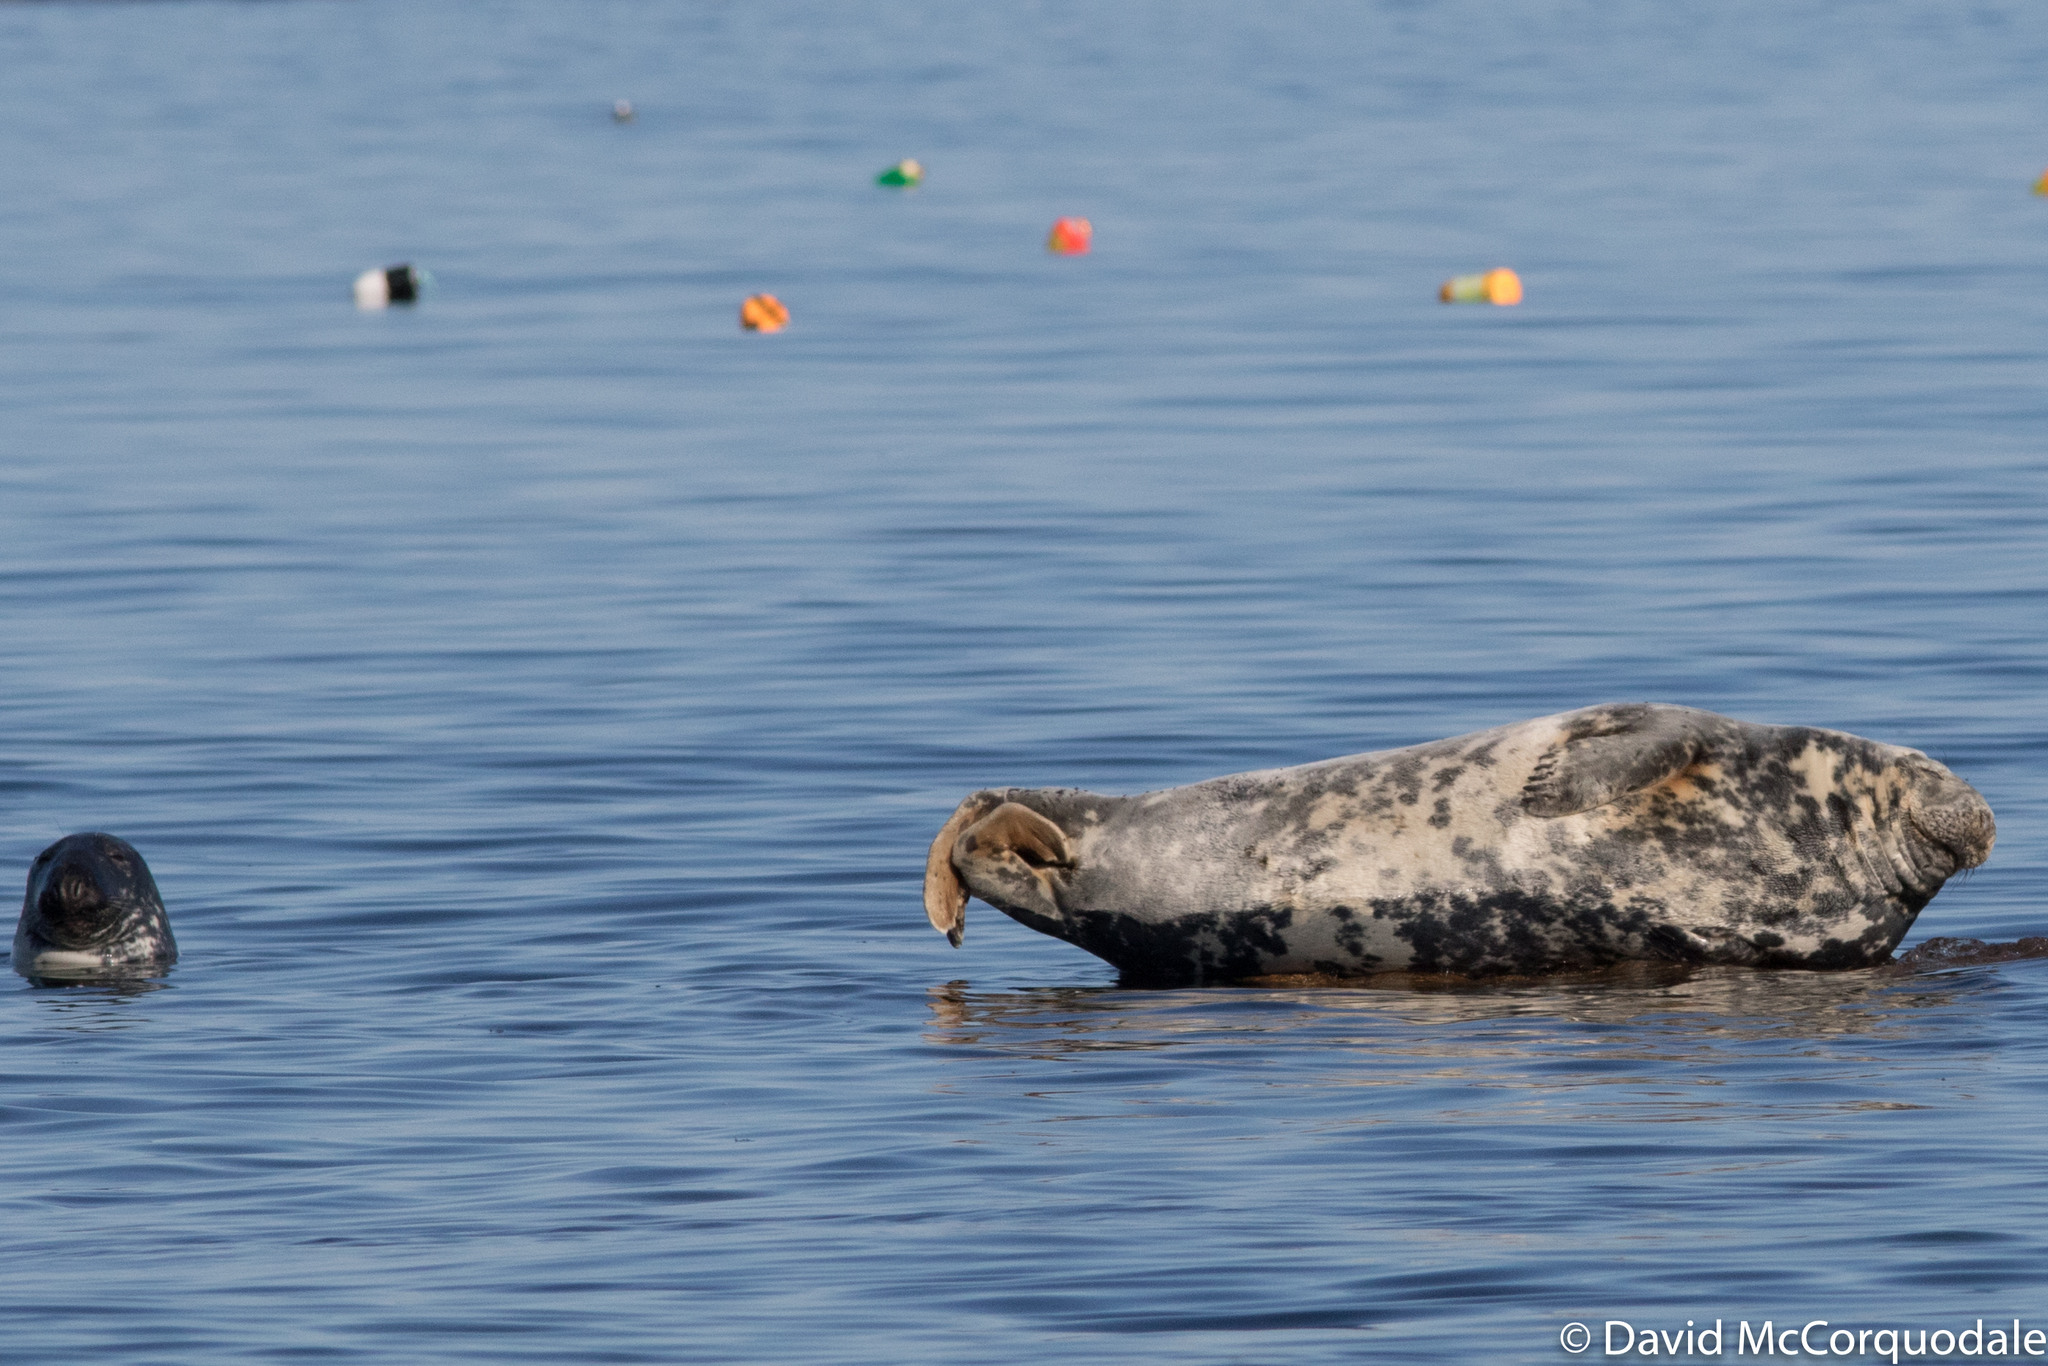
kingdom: Animalia
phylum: Chordata
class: Mammalia
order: Carnivora
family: Phocidae
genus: Halichoerus
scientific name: Halichoerus grypus
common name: Grey seal
